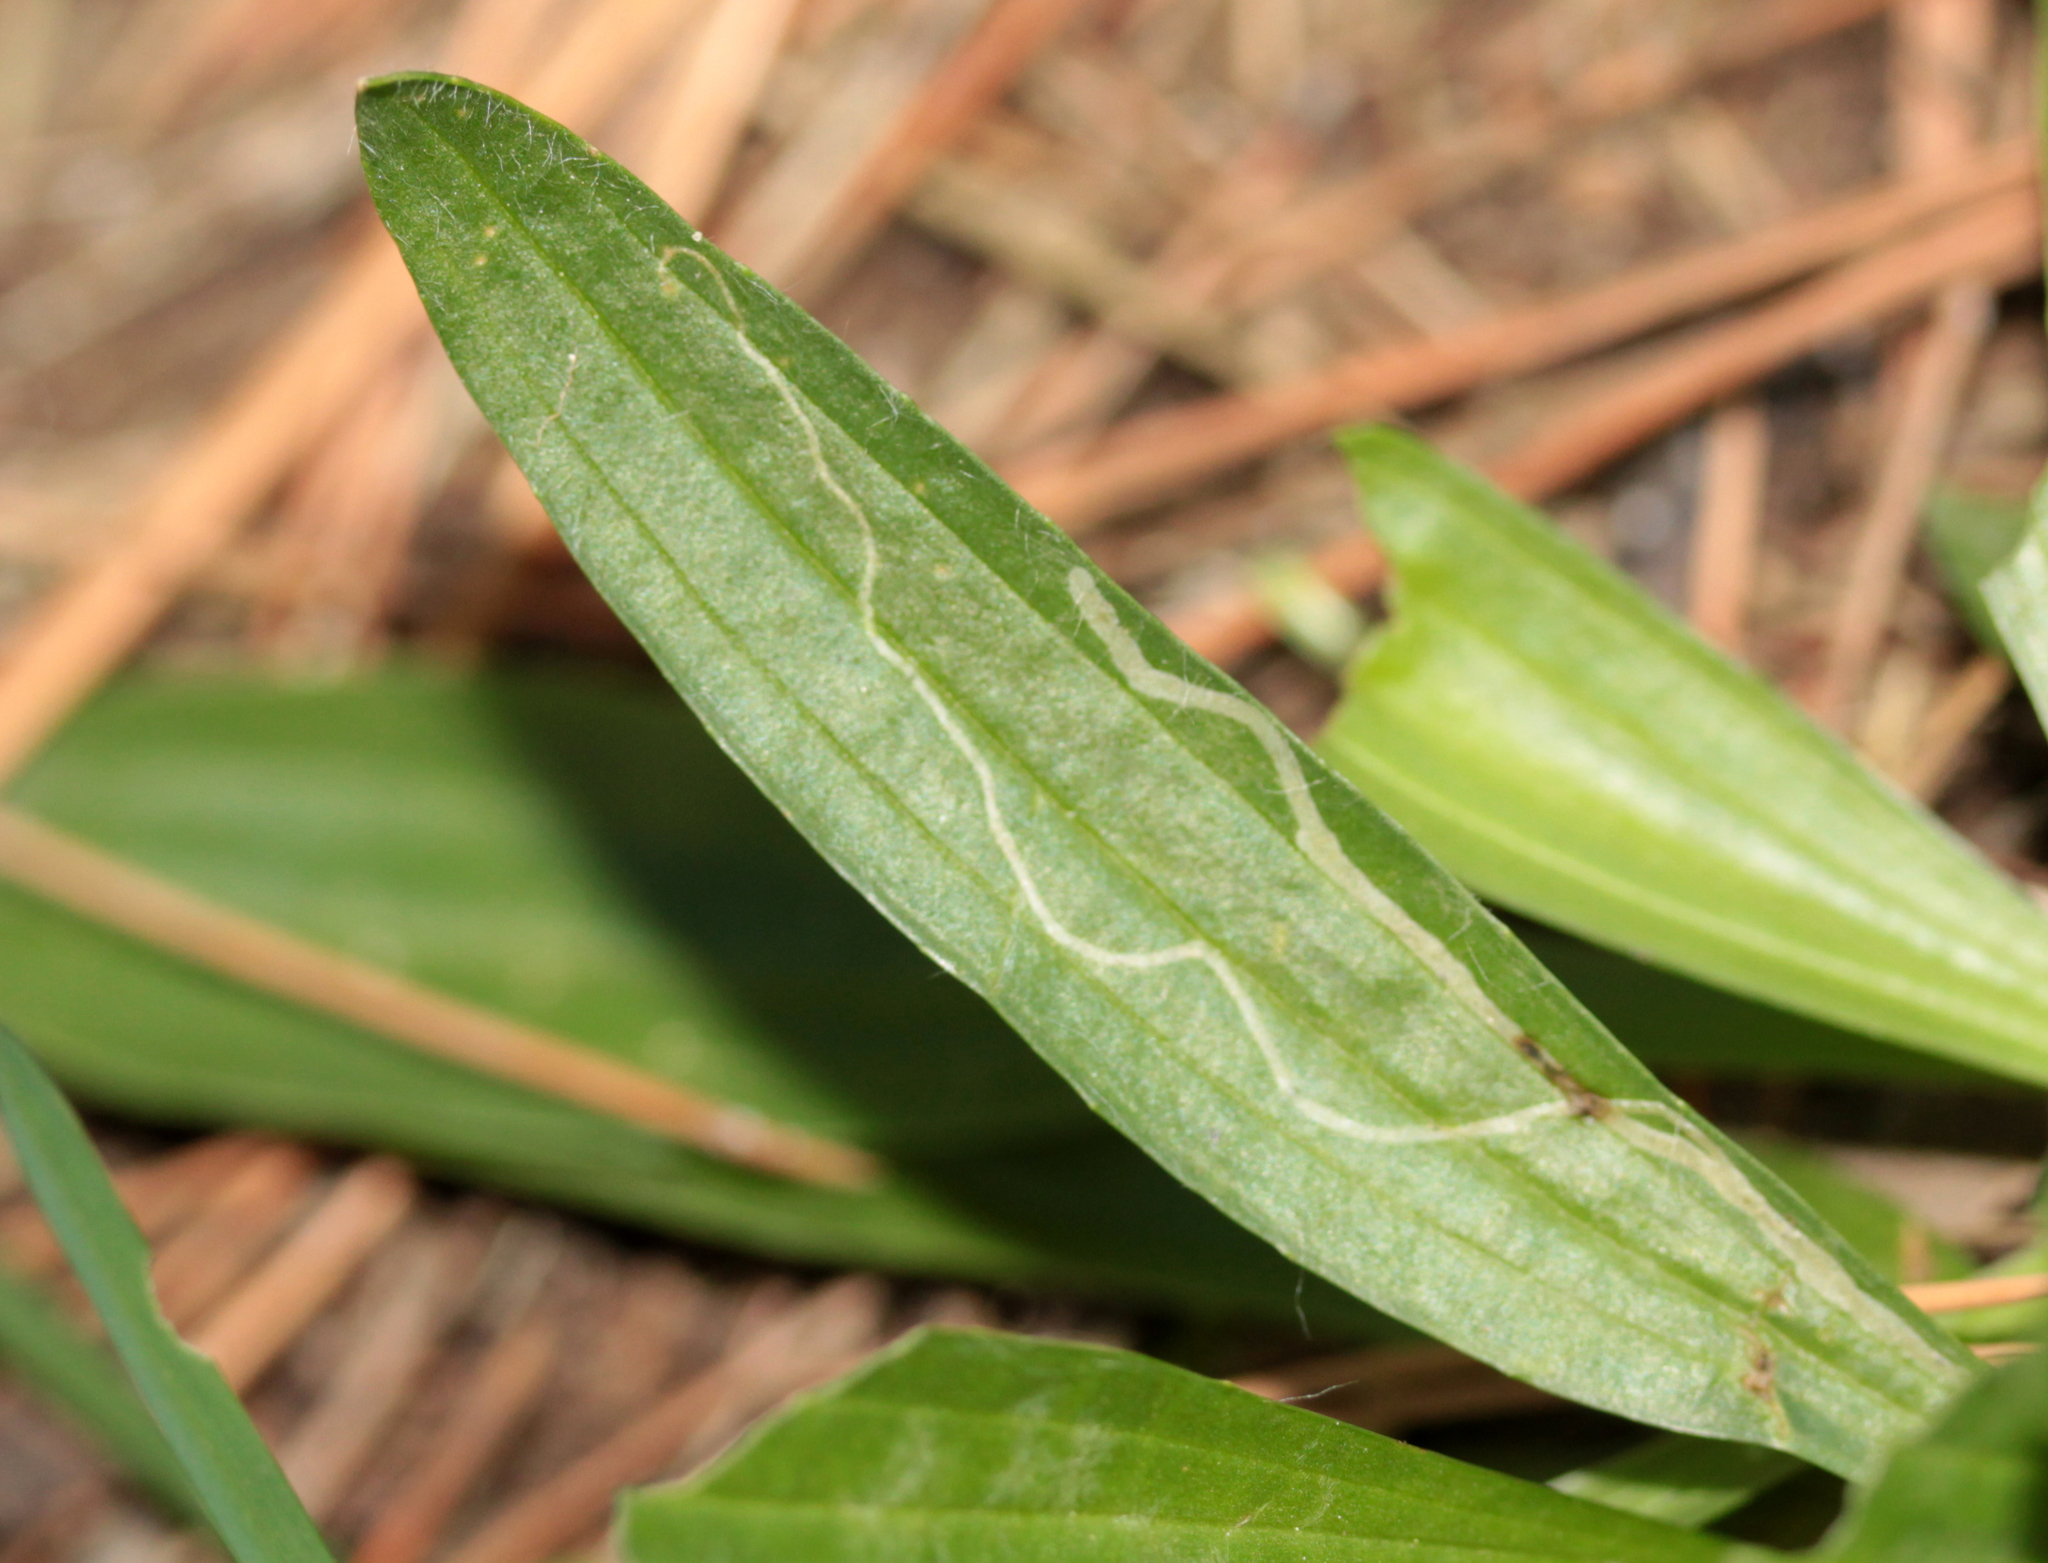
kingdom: Animalia
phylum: Arthropoda
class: Insecta
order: Diptera
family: Agromyzidae
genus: Phytomyza
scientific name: Phytomyza plantaginis
